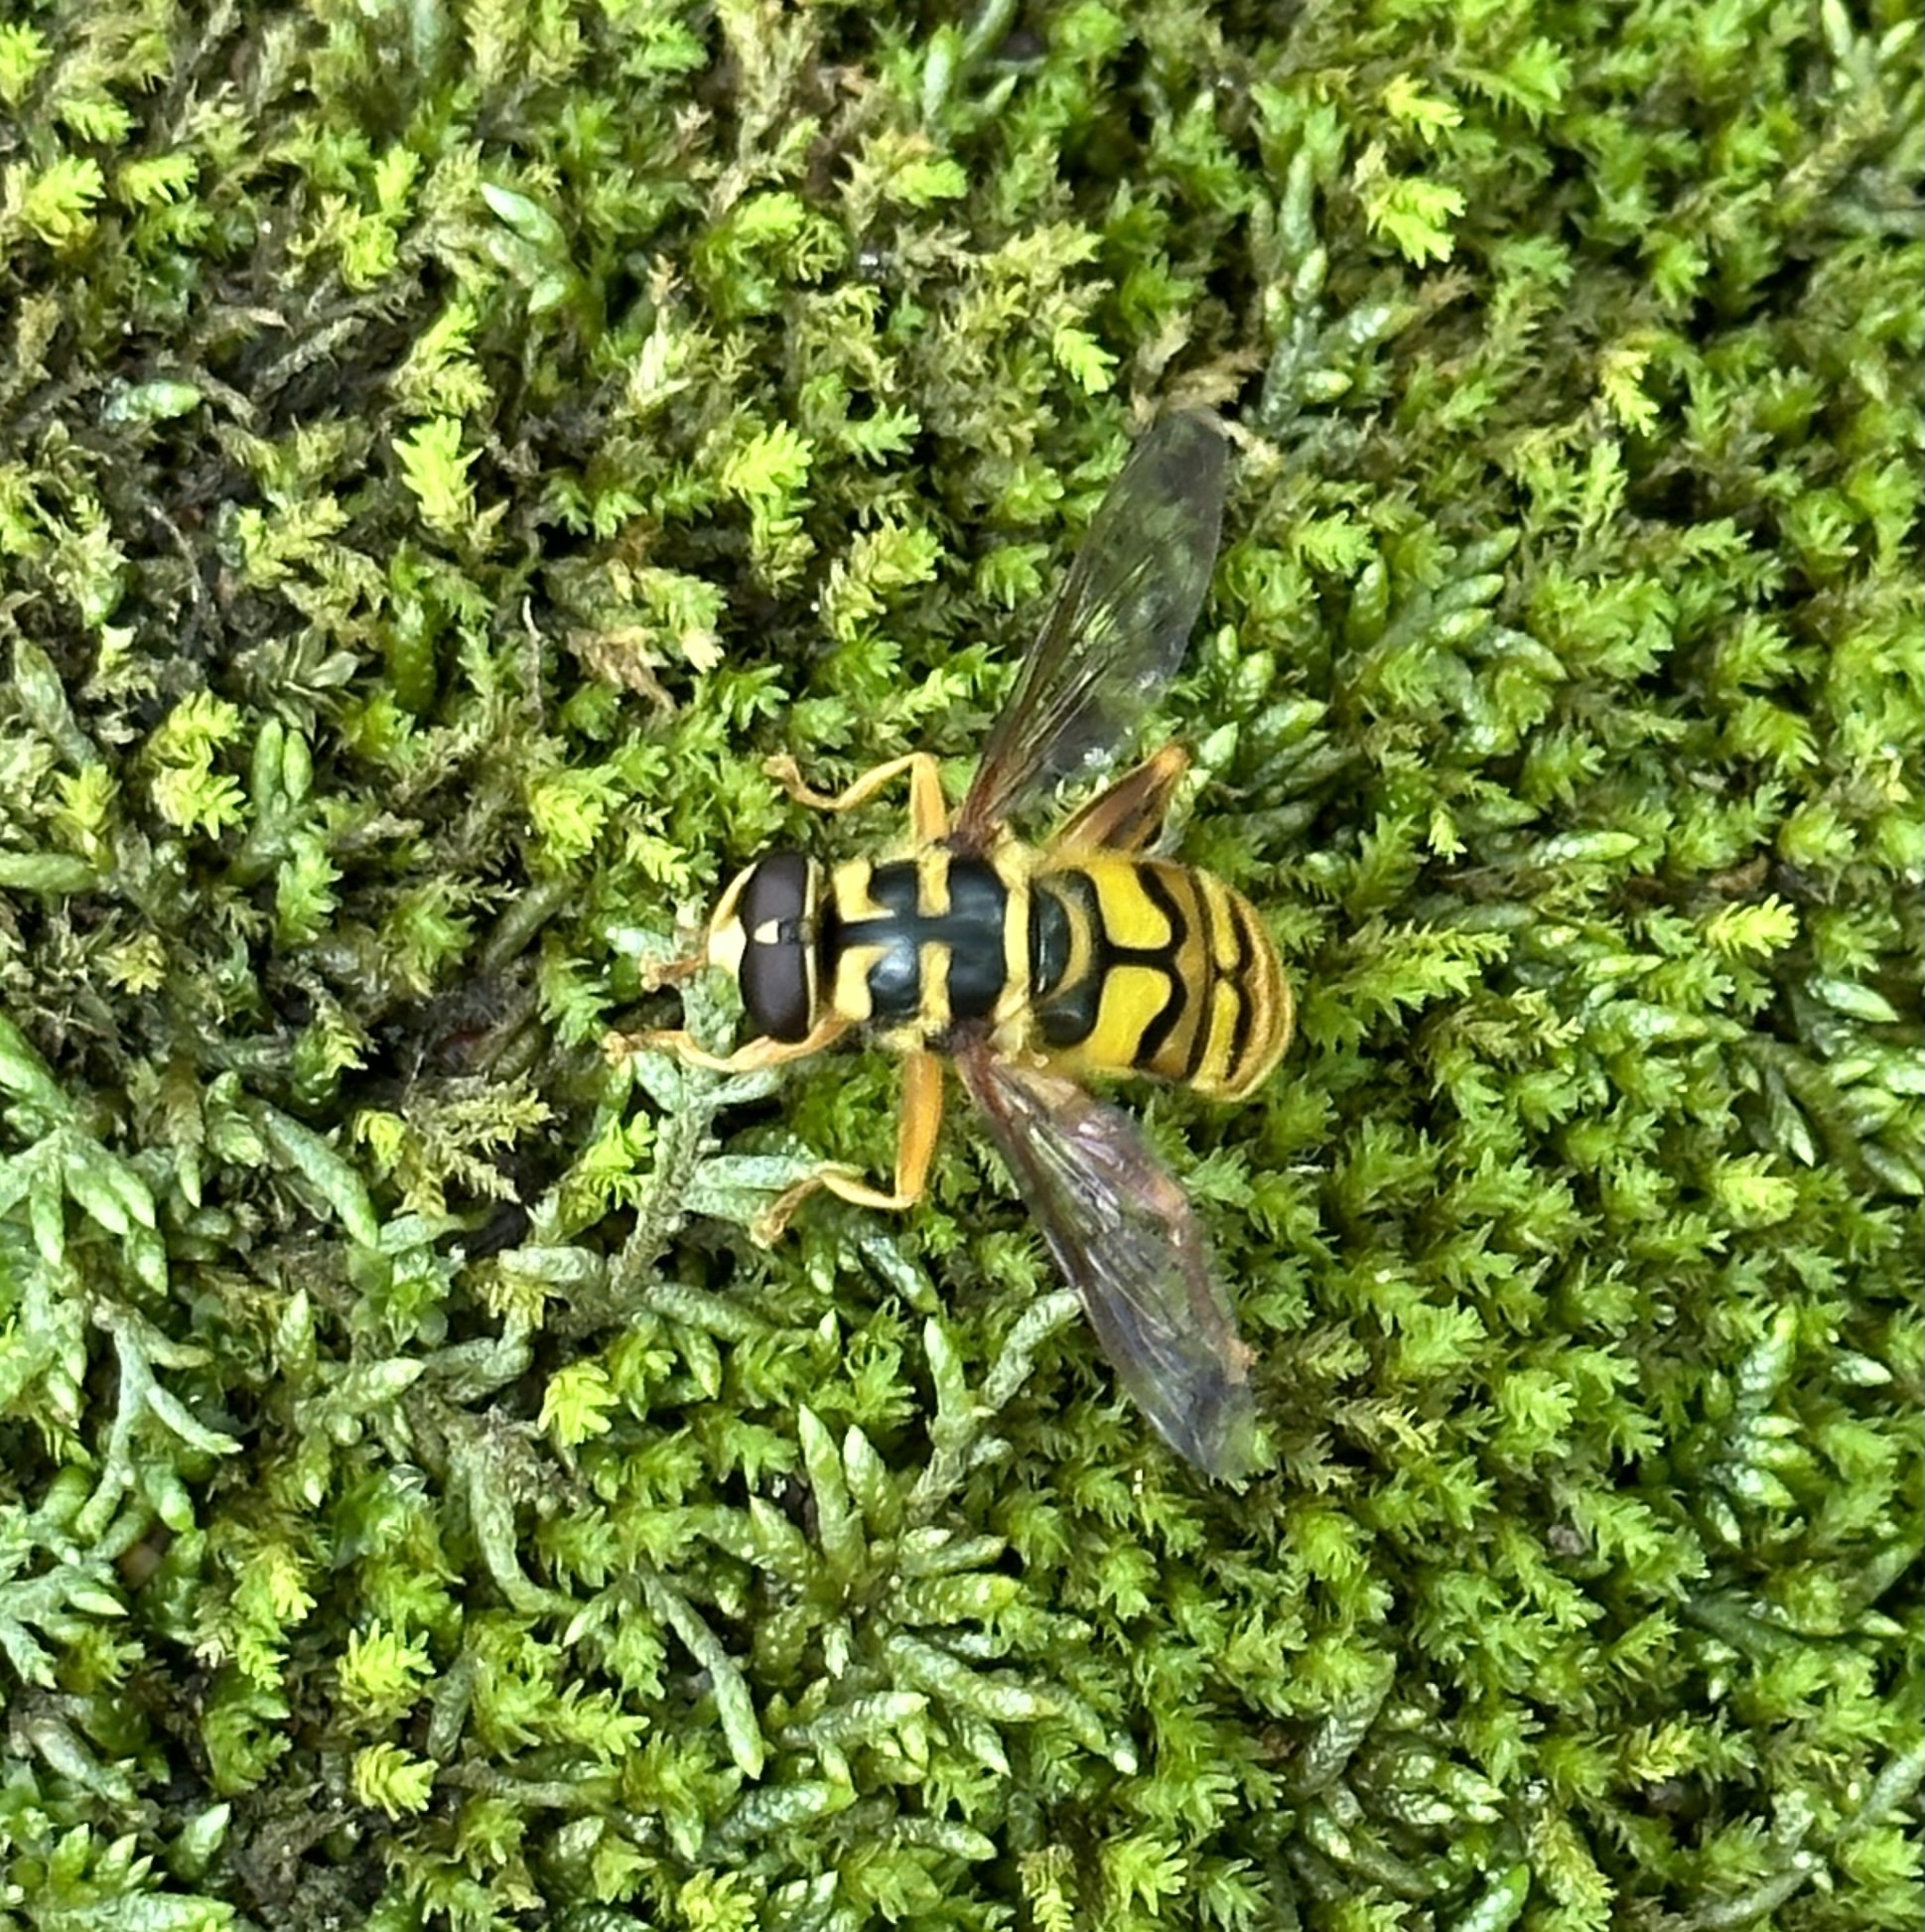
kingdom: Animalia
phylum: Arthropoda
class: Insecta
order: Diptera
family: Syrphidae
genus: Milesia
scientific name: Milesia virginiensis
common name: Virginia giant
